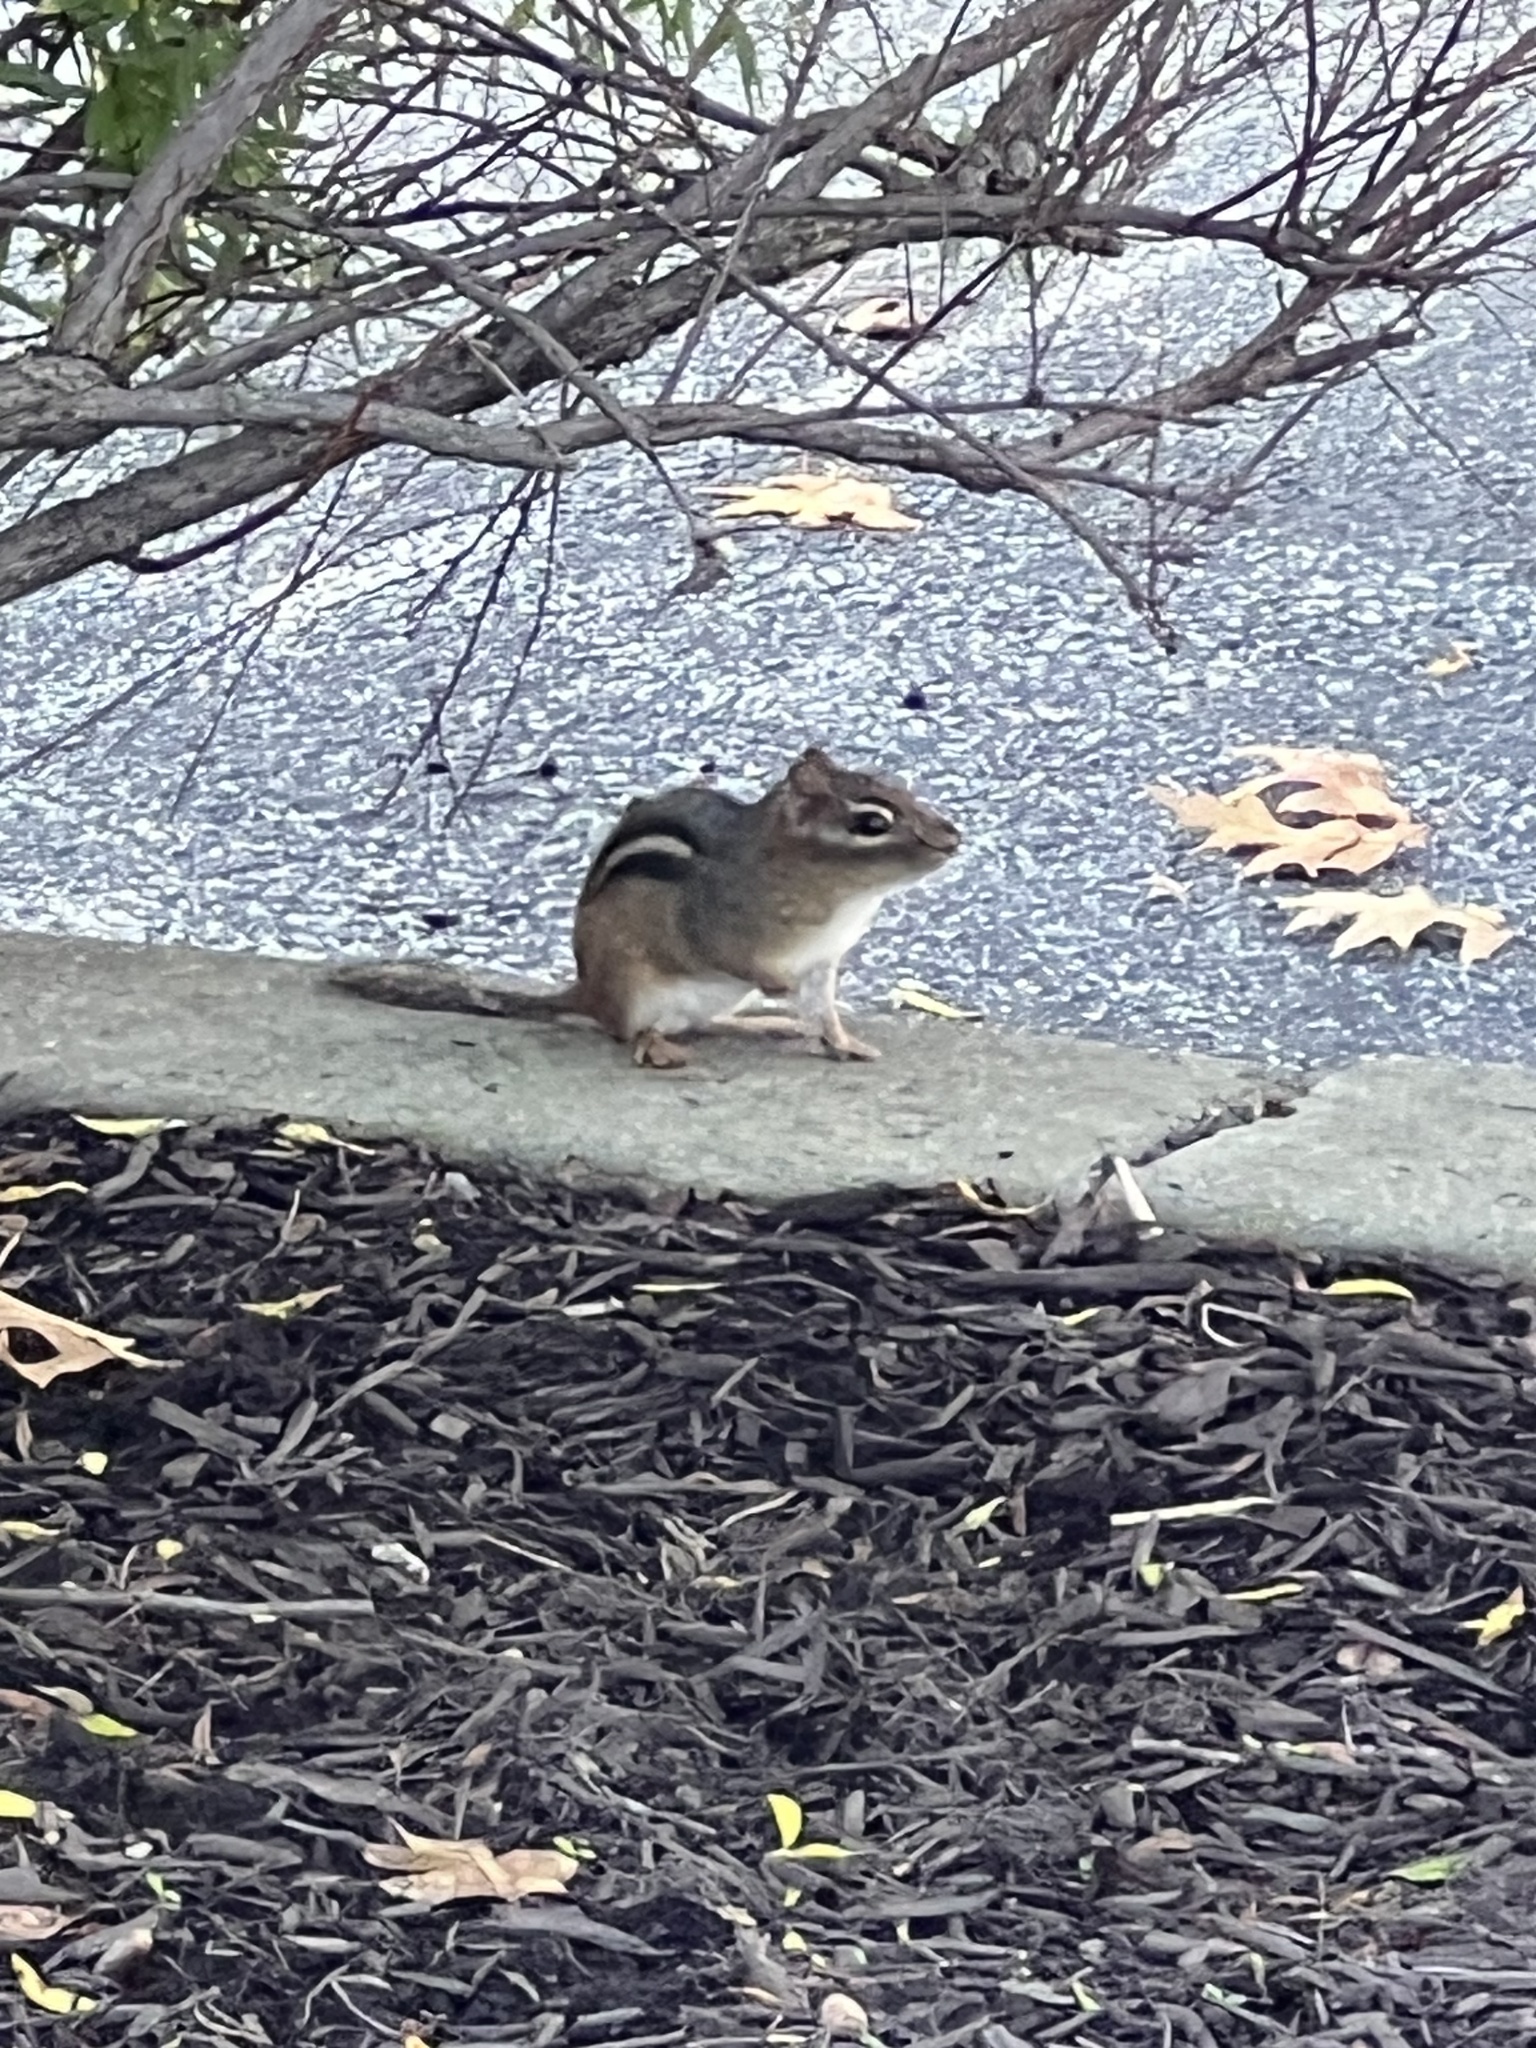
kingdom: Animalia
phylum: Chordata
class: Mammalia
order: Rodentia
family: Sciuridae
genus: Tamias
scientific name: Tamias striatus
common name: Eastern chipmunk
